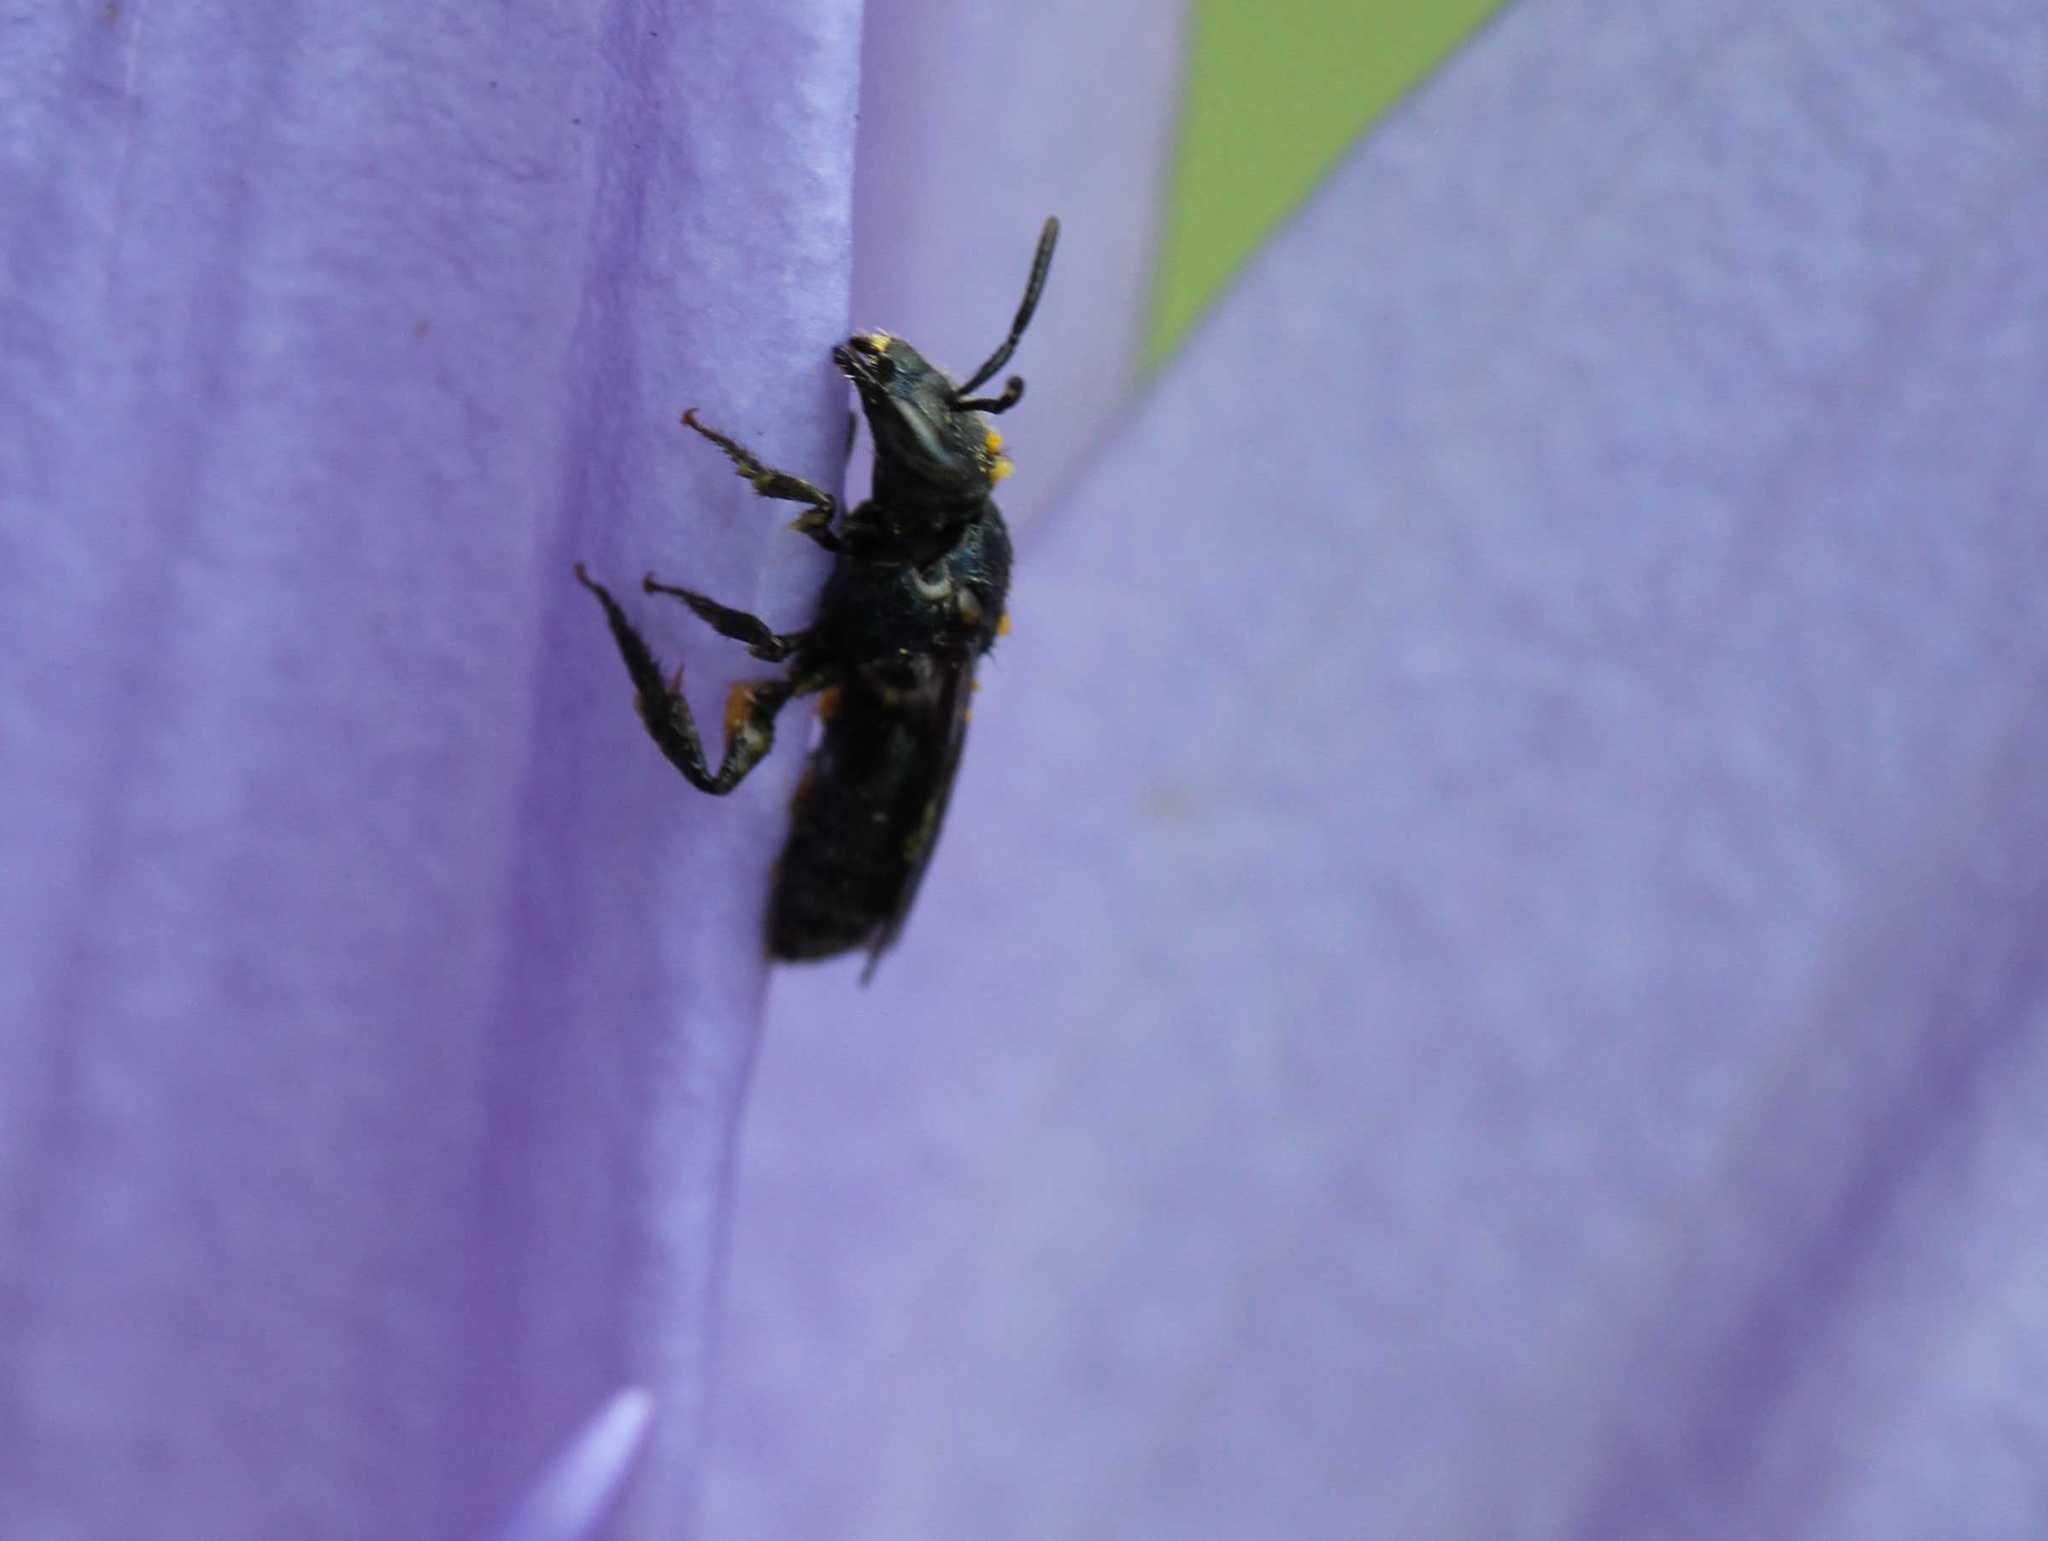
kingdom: Animalia
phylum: Arthropoda
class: Insecta
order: Hymenoptera
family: Halictidae
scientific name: Halictidae
